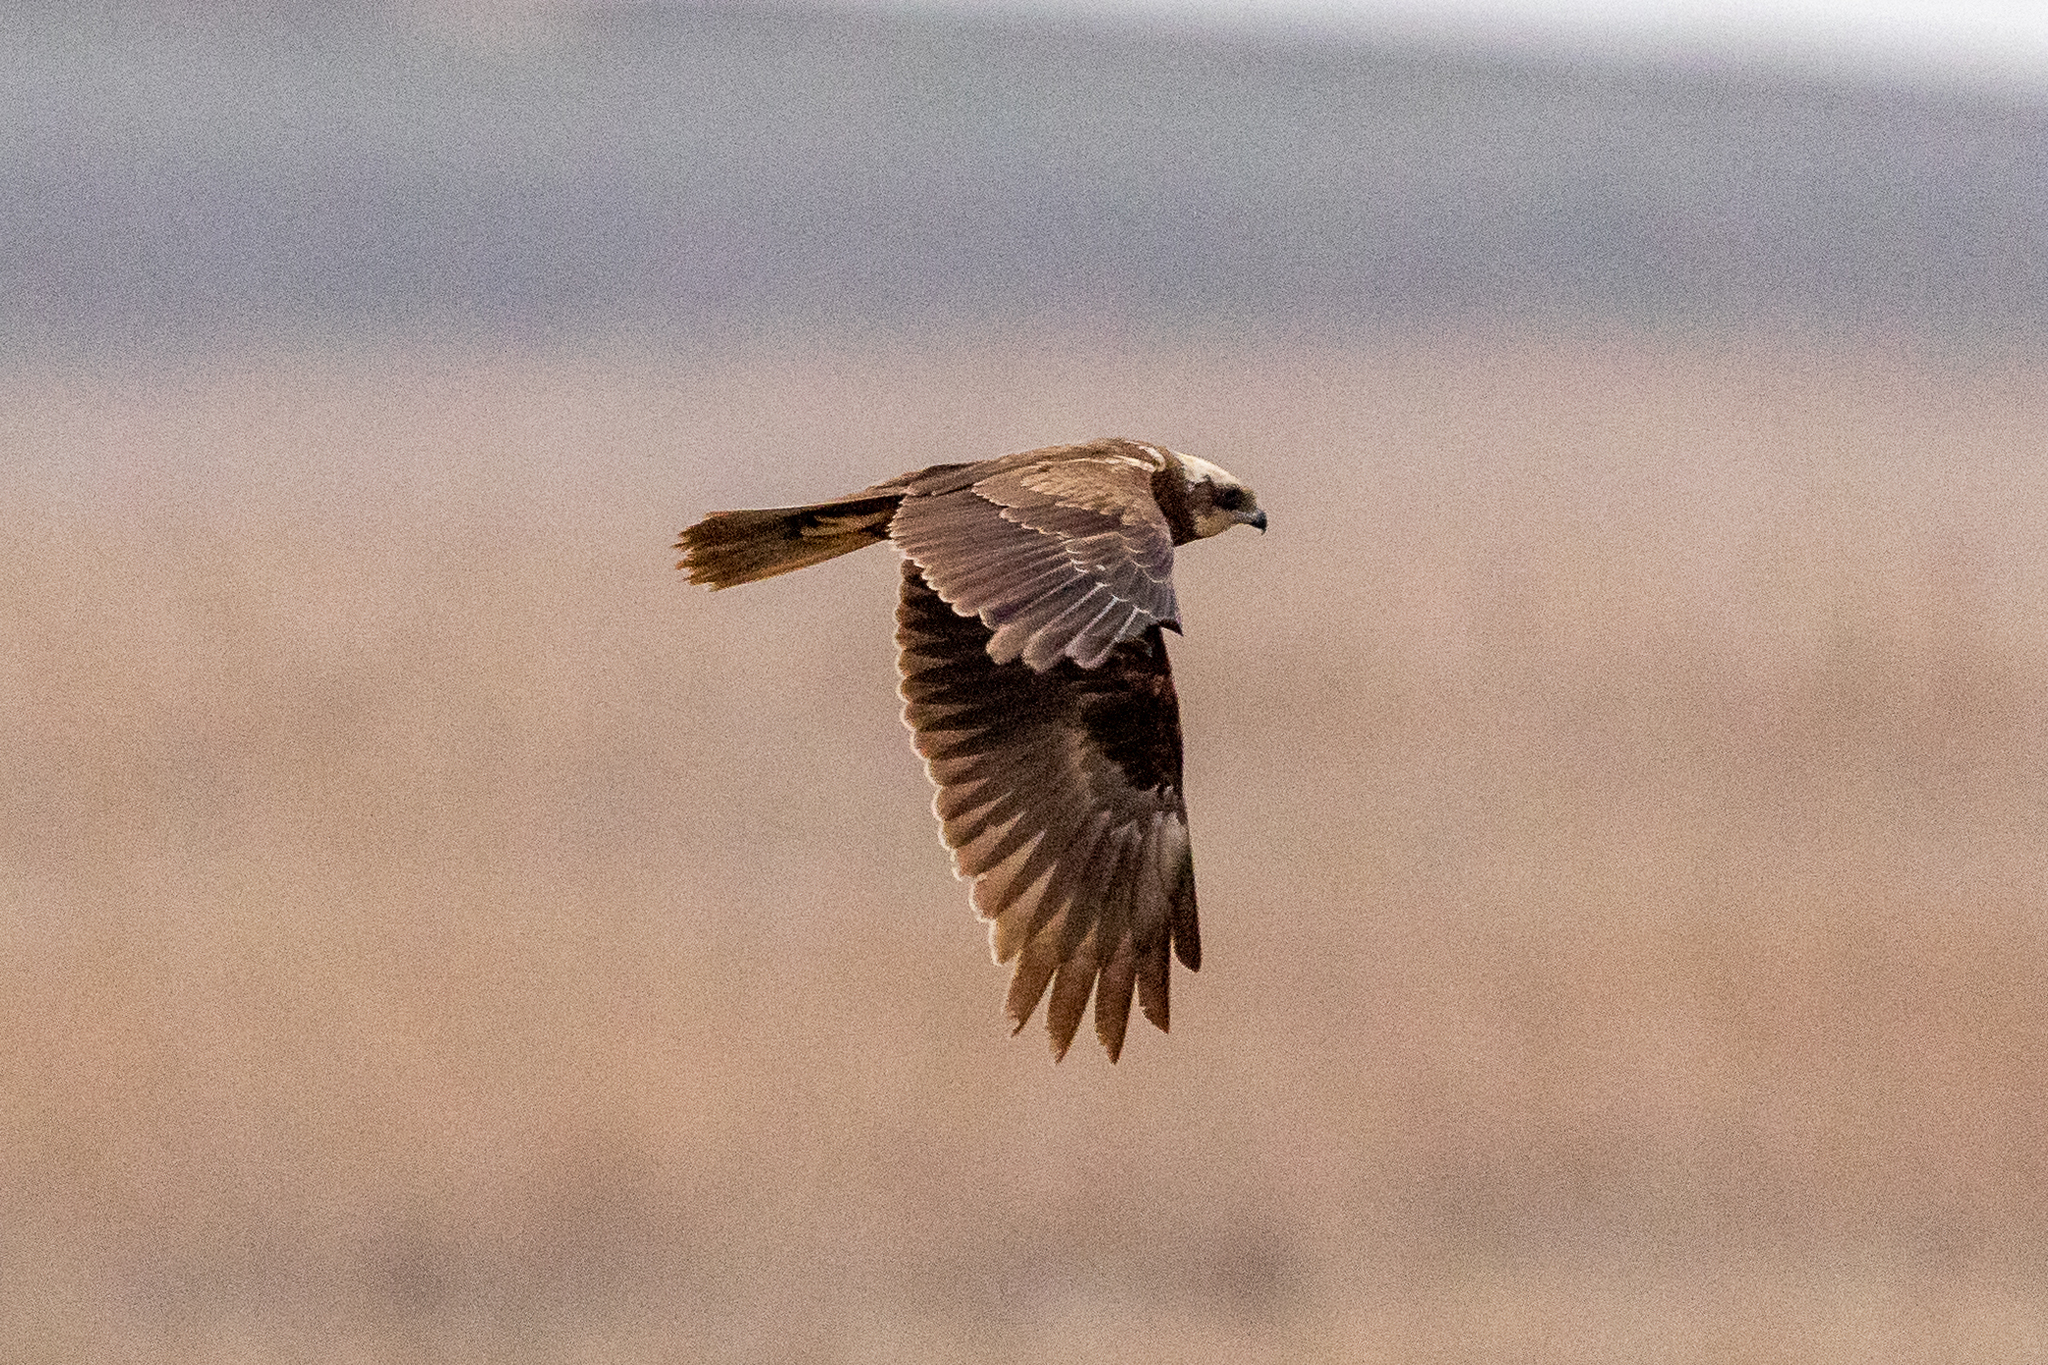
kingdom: Animalia
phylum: Chordata
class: Aves
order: Accipitriformes
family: Accipitridae
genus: Circus
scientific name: Circus aeruginosus
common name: Western marsh harrier
